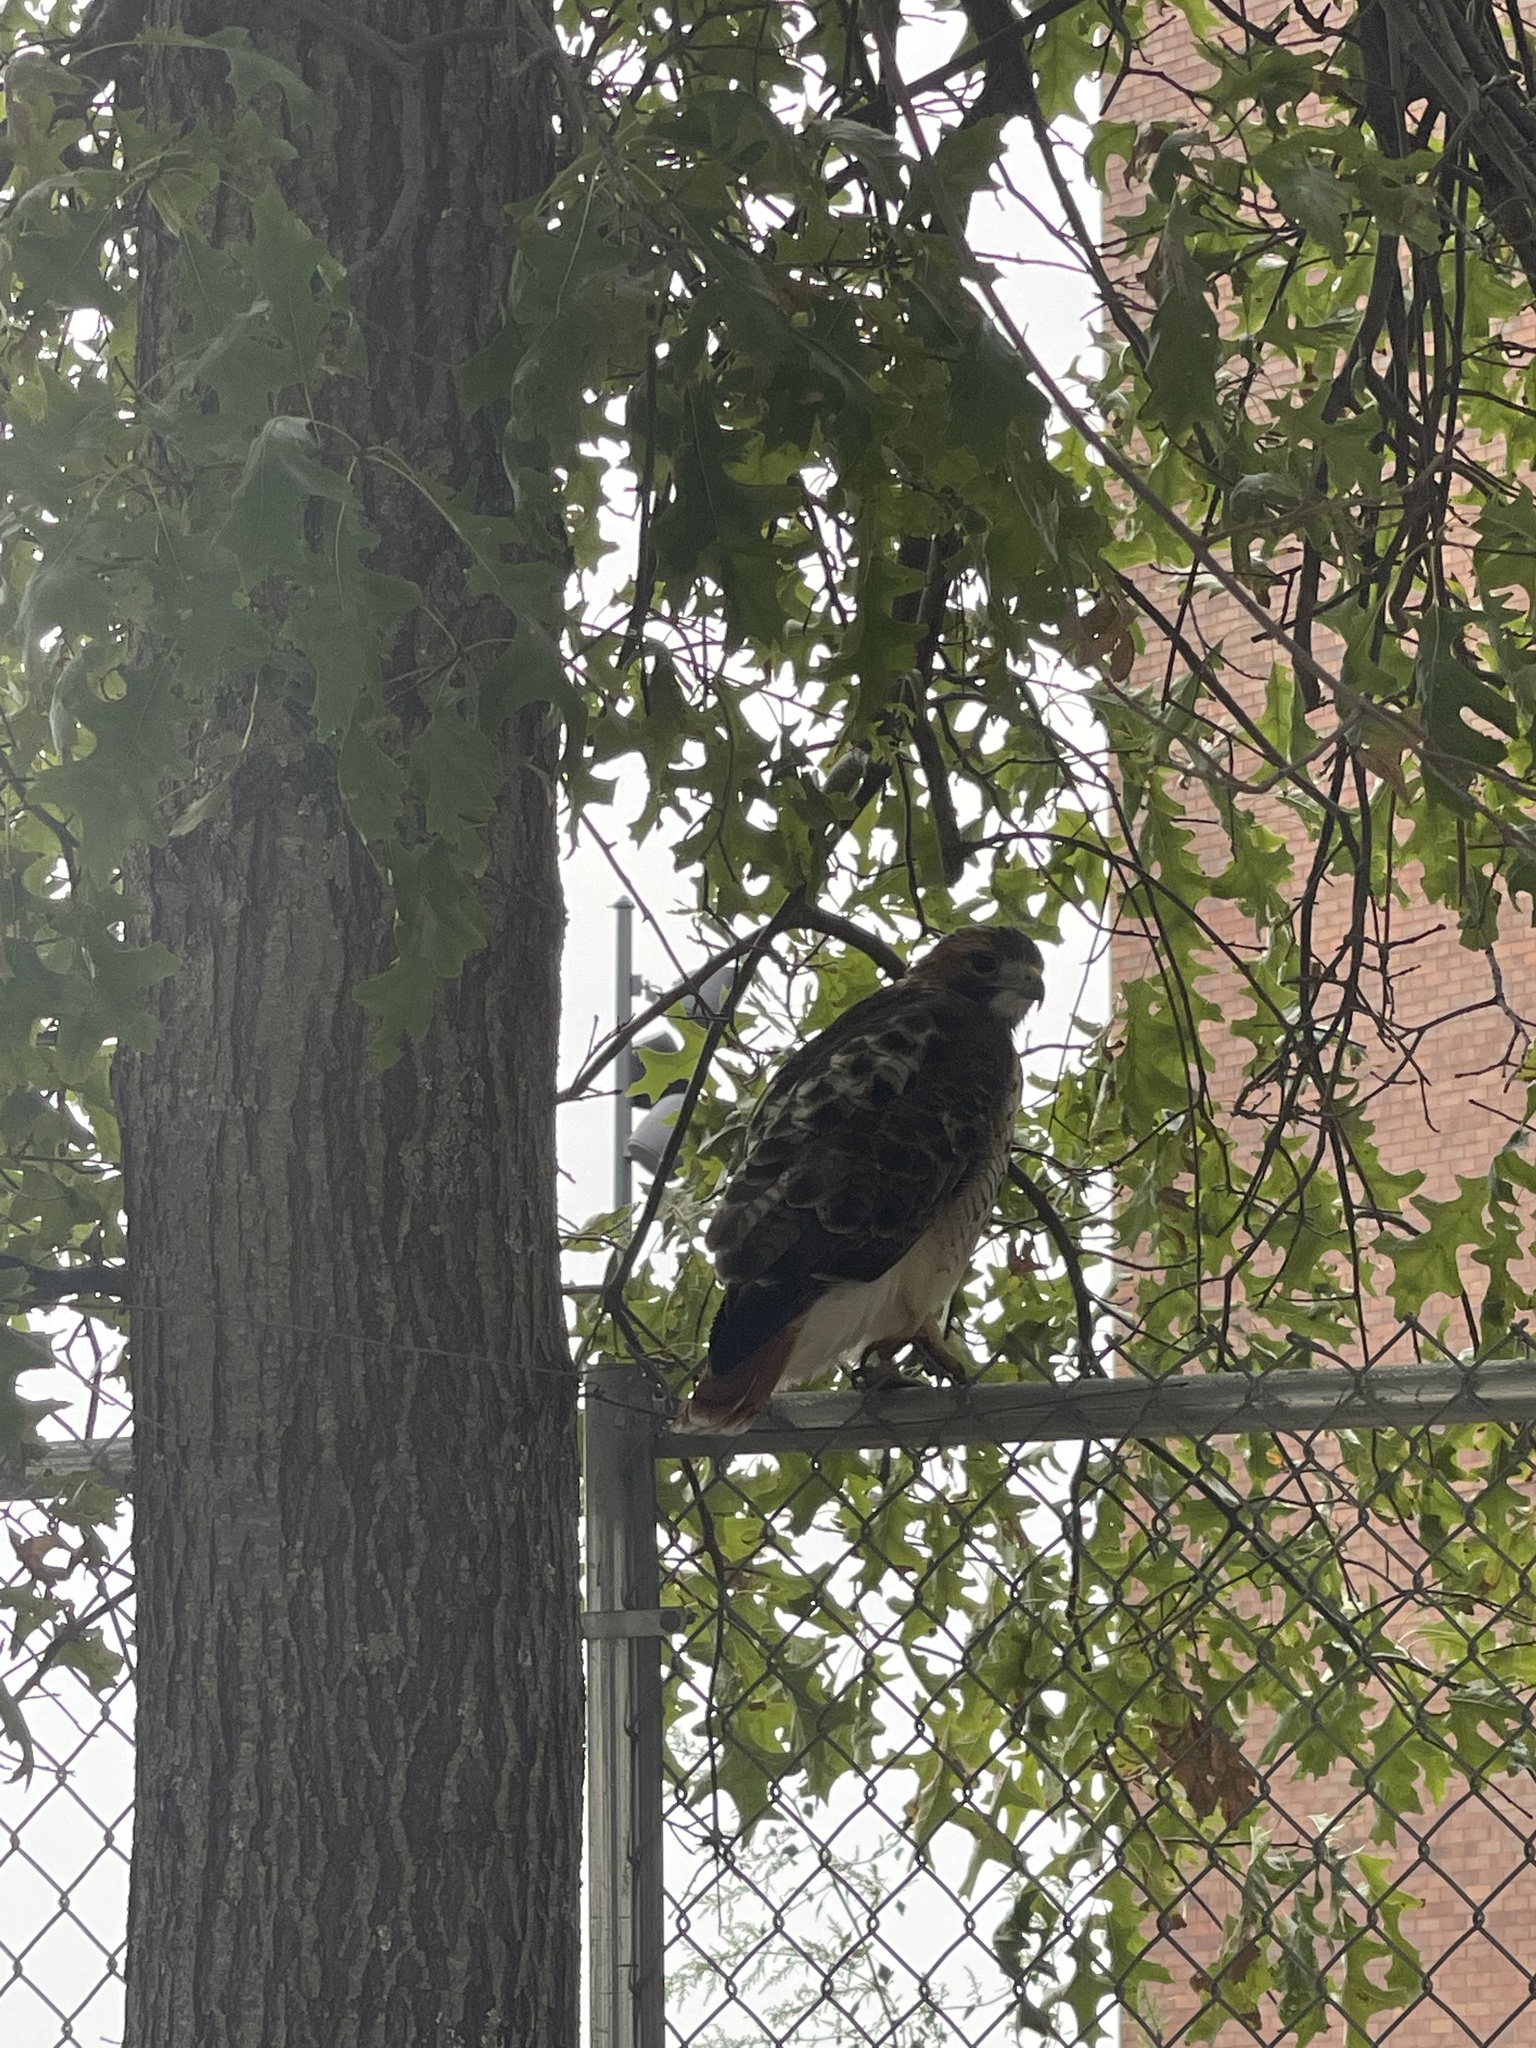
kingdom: Animalia
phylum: Chordata
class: Aves
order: Accipitriformes
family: Accipitridae
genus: Buteo
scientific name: Buteo jamaicensis
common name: Red-tailed hawk
